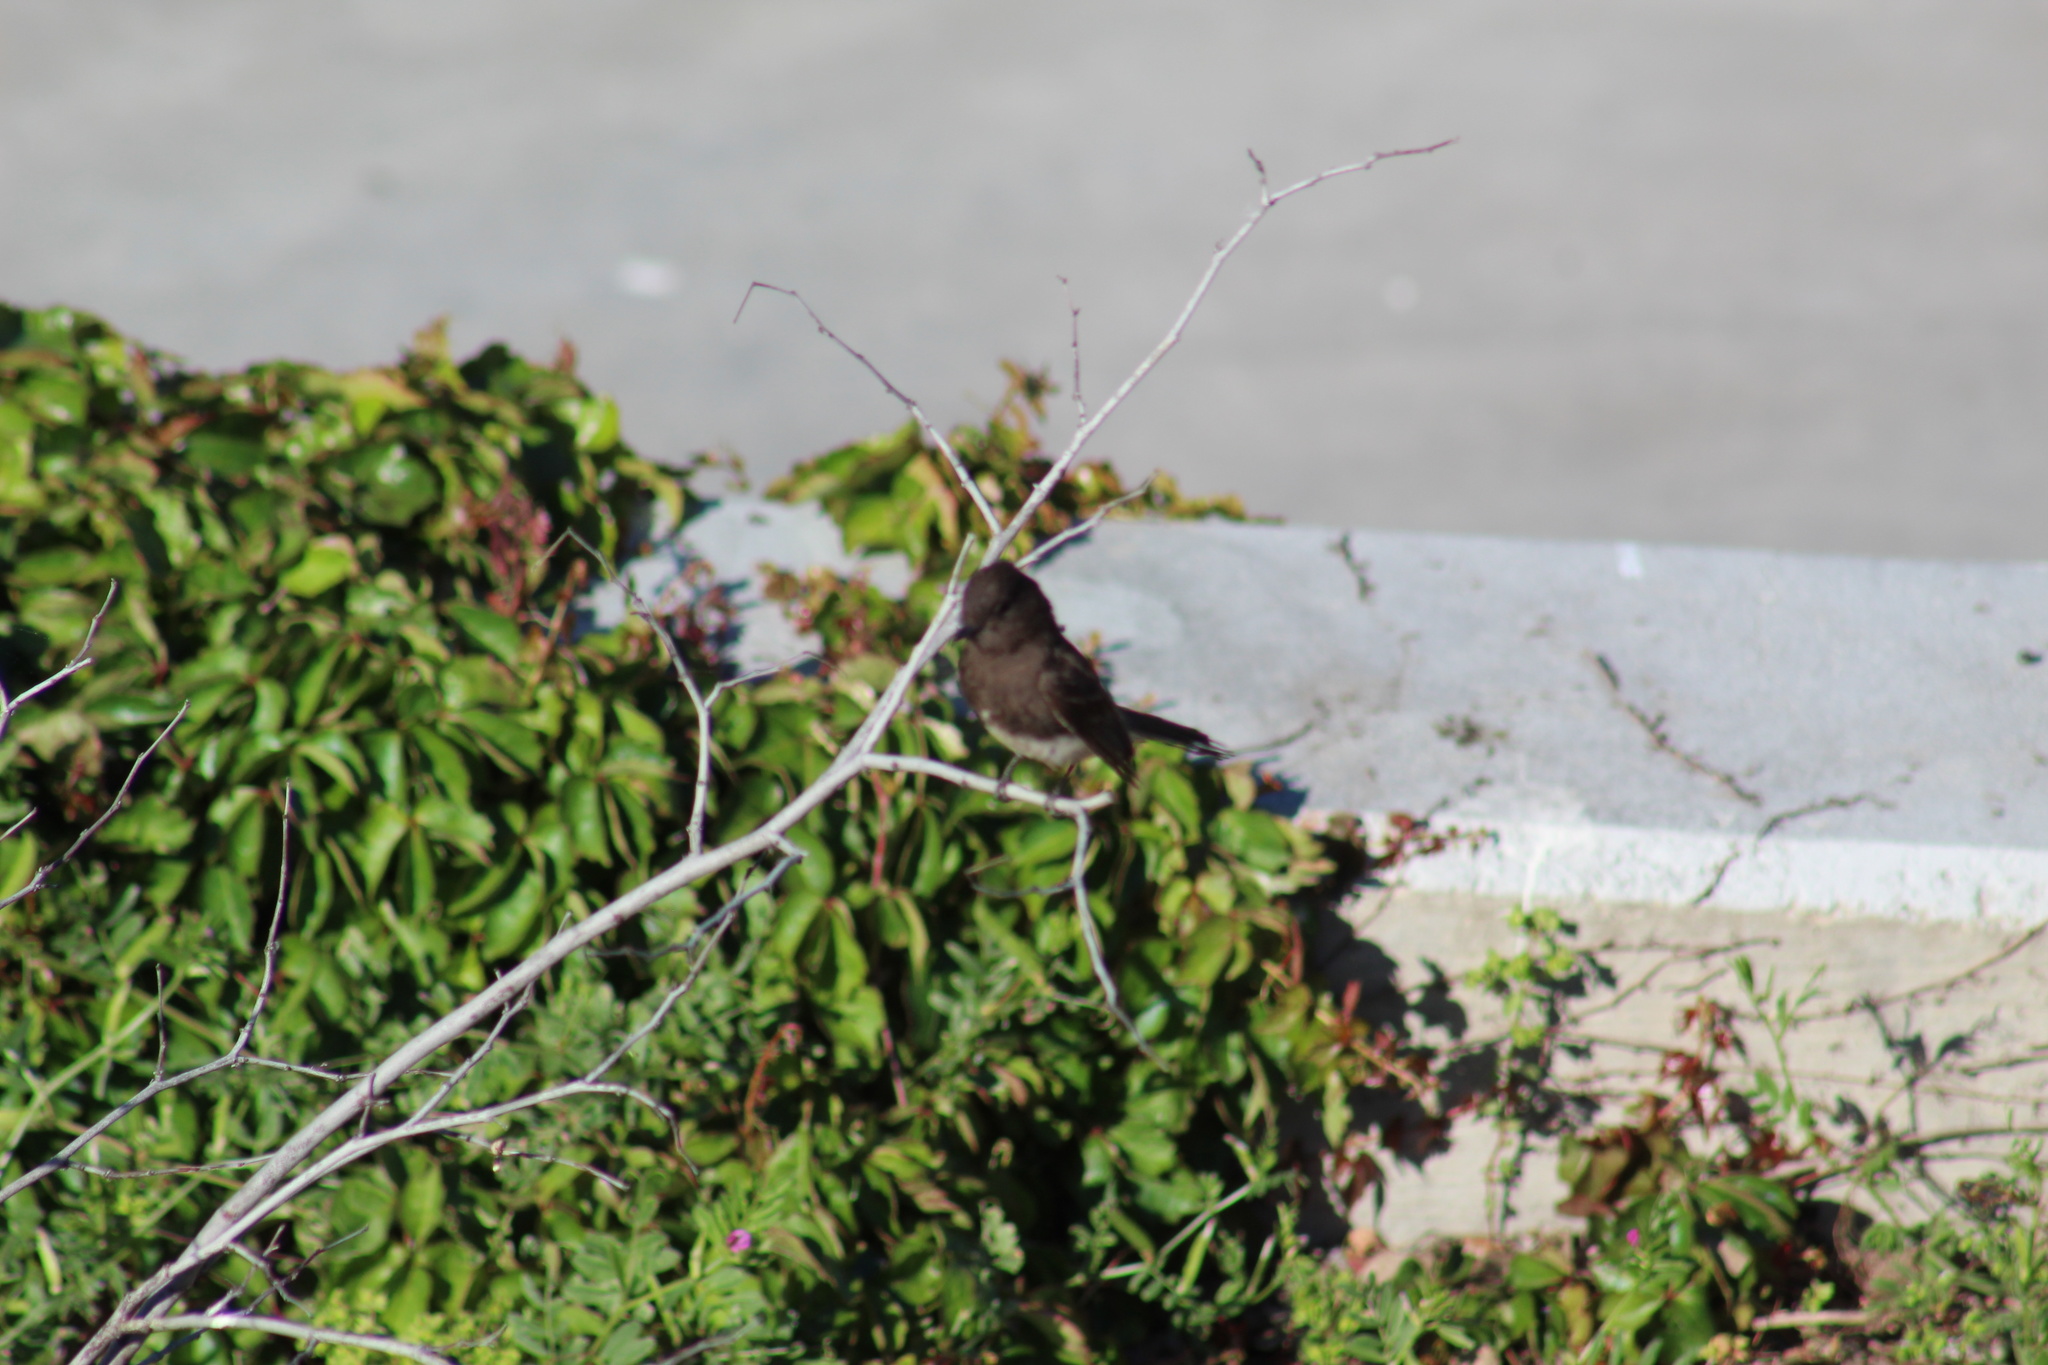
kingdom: Animalia
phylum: Chordata
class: Aves
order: Passeriformes
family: Tyrannidae
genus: Sayornis
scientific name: Sayornis nigricans
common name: Black phoebe
